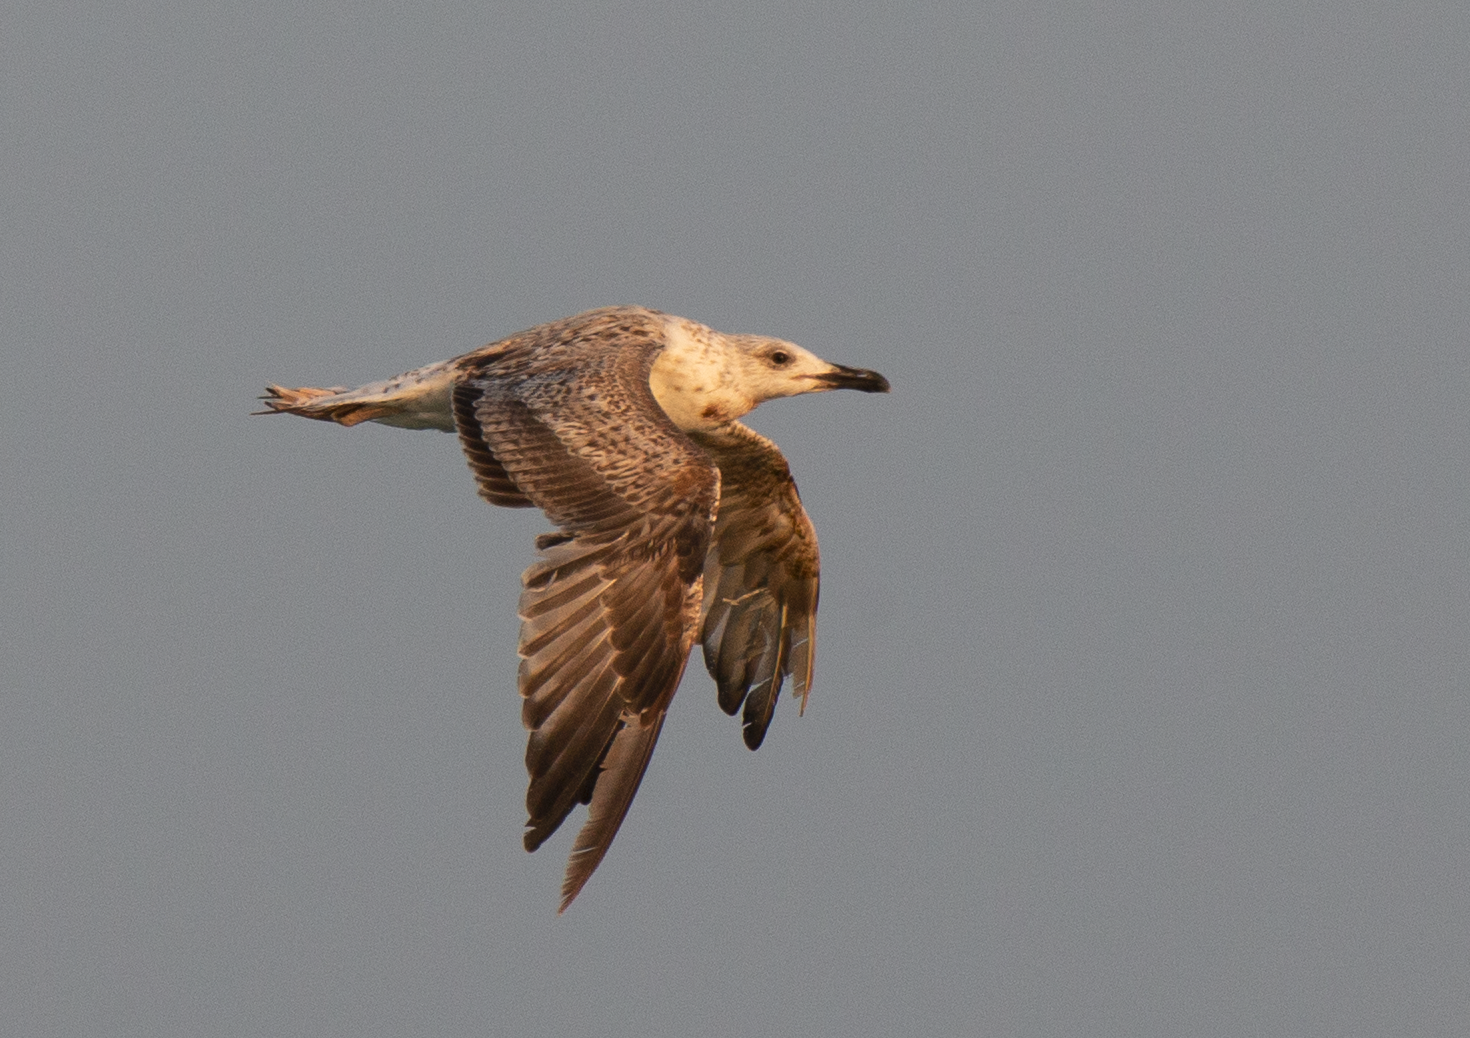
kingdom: Animalia
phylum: Chordata
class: Aves
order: Charadriiformes
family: Laridae
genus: Larus
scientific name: Larus michahellis
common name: Yellow-legged gull
